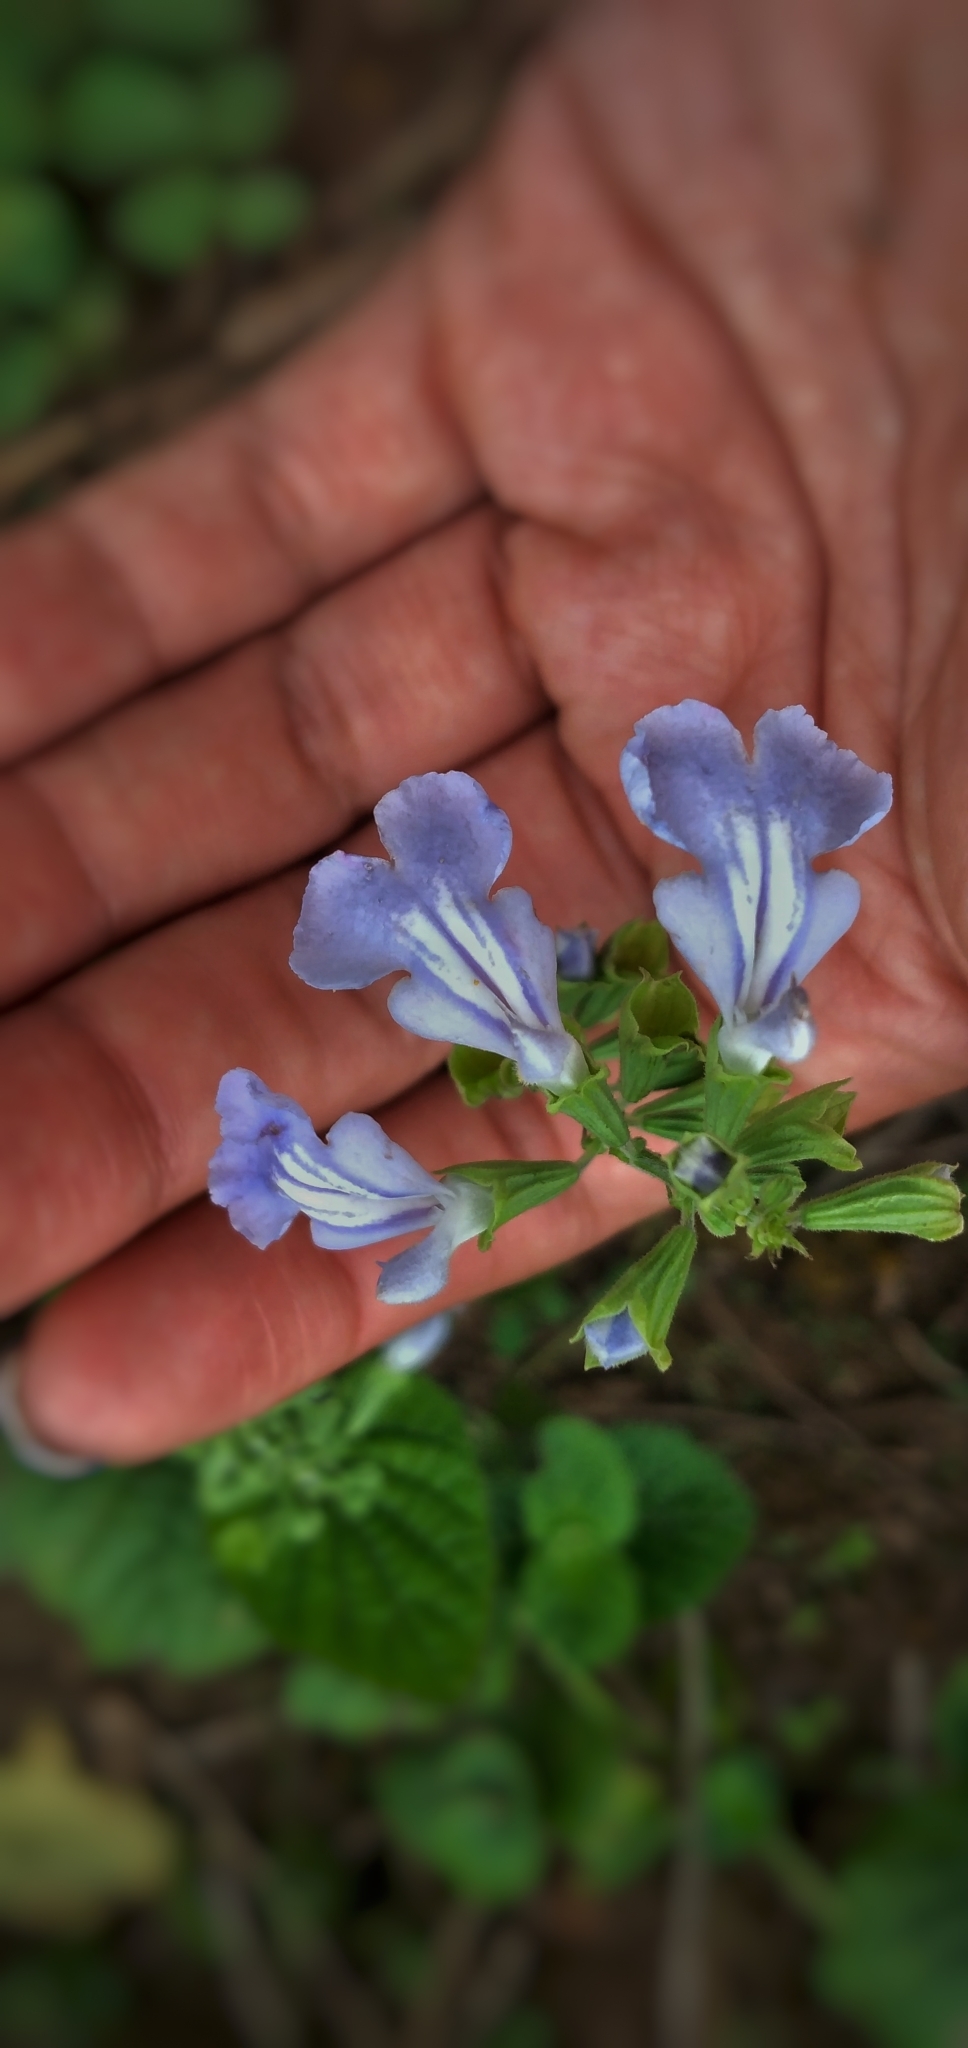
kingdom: Plantae
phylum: Tracheophyta
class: Magnoliopsida
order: Lamiales
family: Lamiaceae
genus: Salvia
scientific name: Salvia cardiophylla
